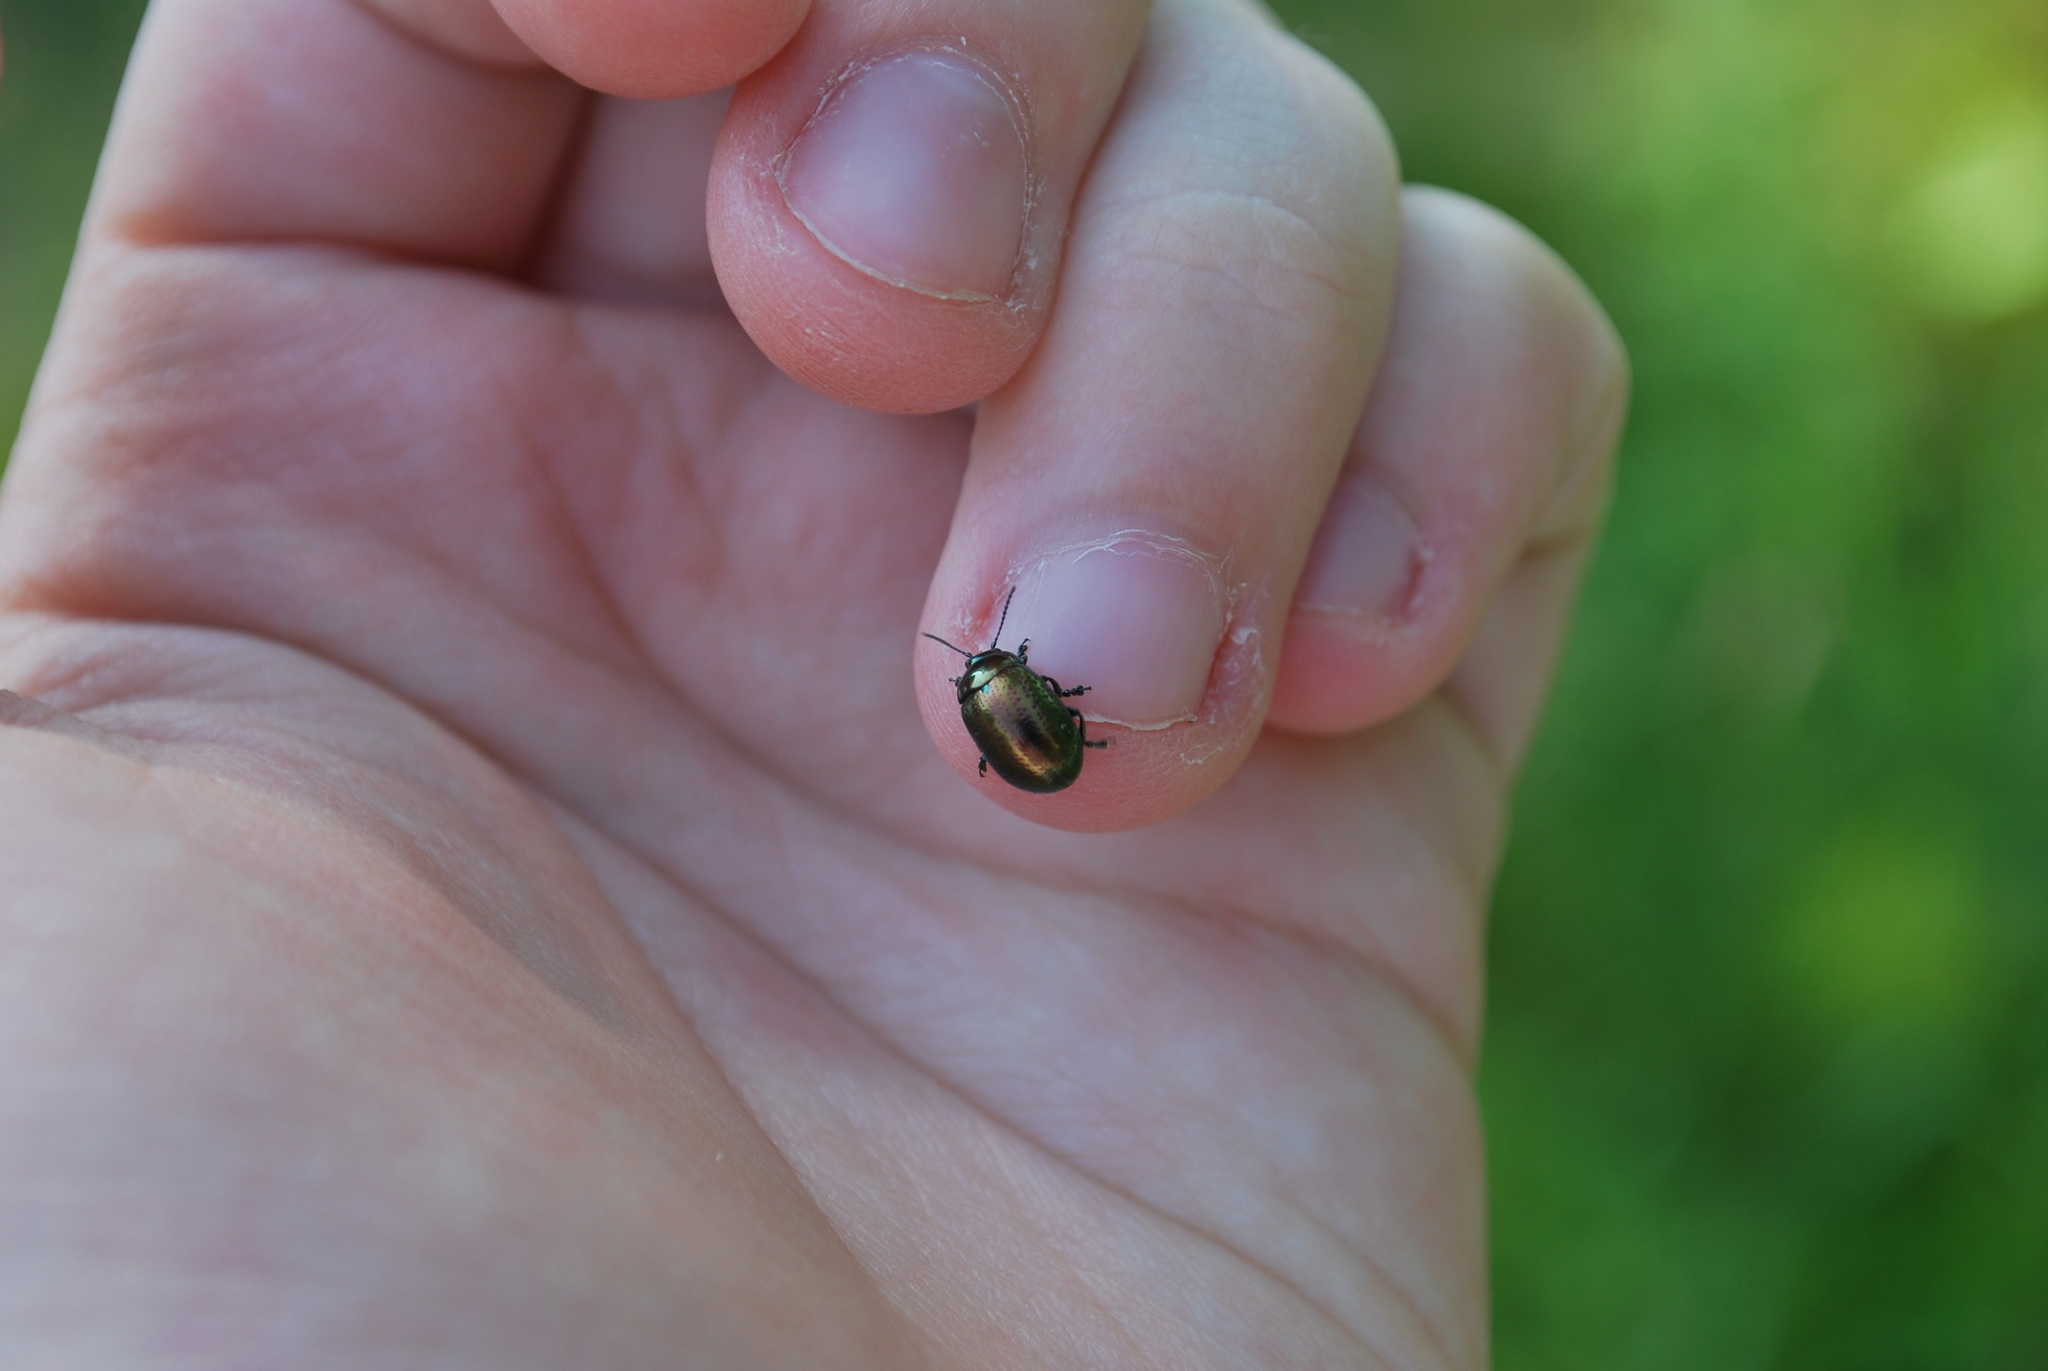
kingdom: Animalia
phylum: Arthropoda
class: Insecta
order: Coleoptera
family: Chrysomelidae
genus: Chrysolina
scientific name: Chrysolina hyperici
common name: St. johnswort beetle
